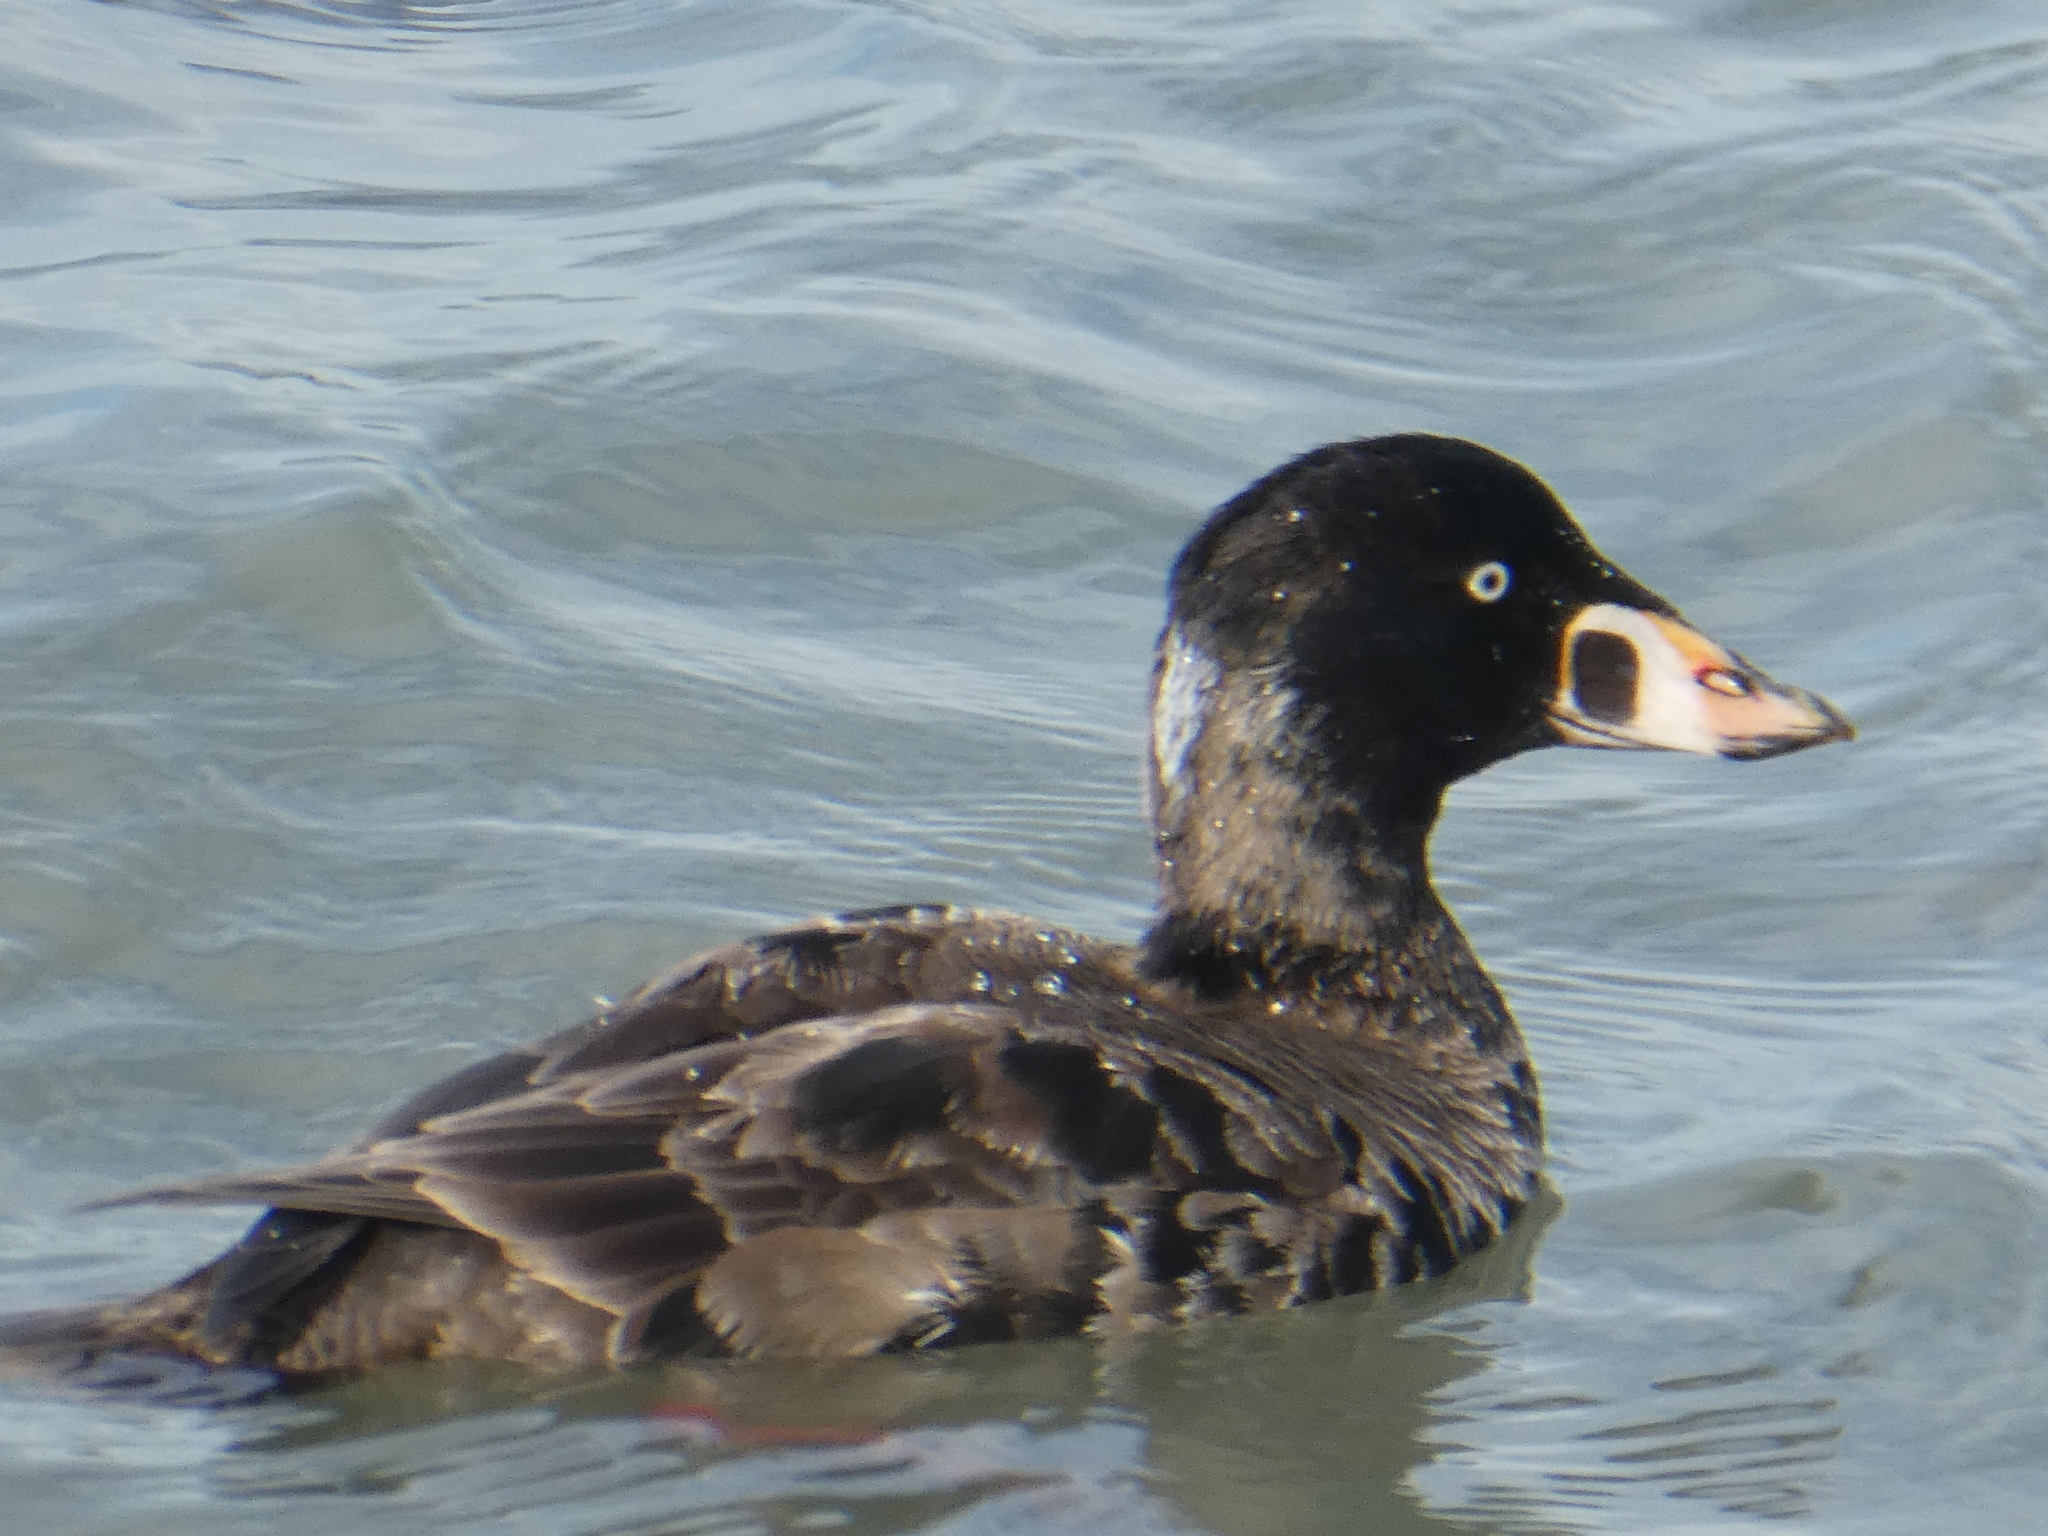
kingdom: Animalia
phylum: Chordata
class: Aves
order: Anseriformes
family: Anatidae
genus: Melanitta
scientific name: Melanitta perspicillata
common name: Surf scoter
